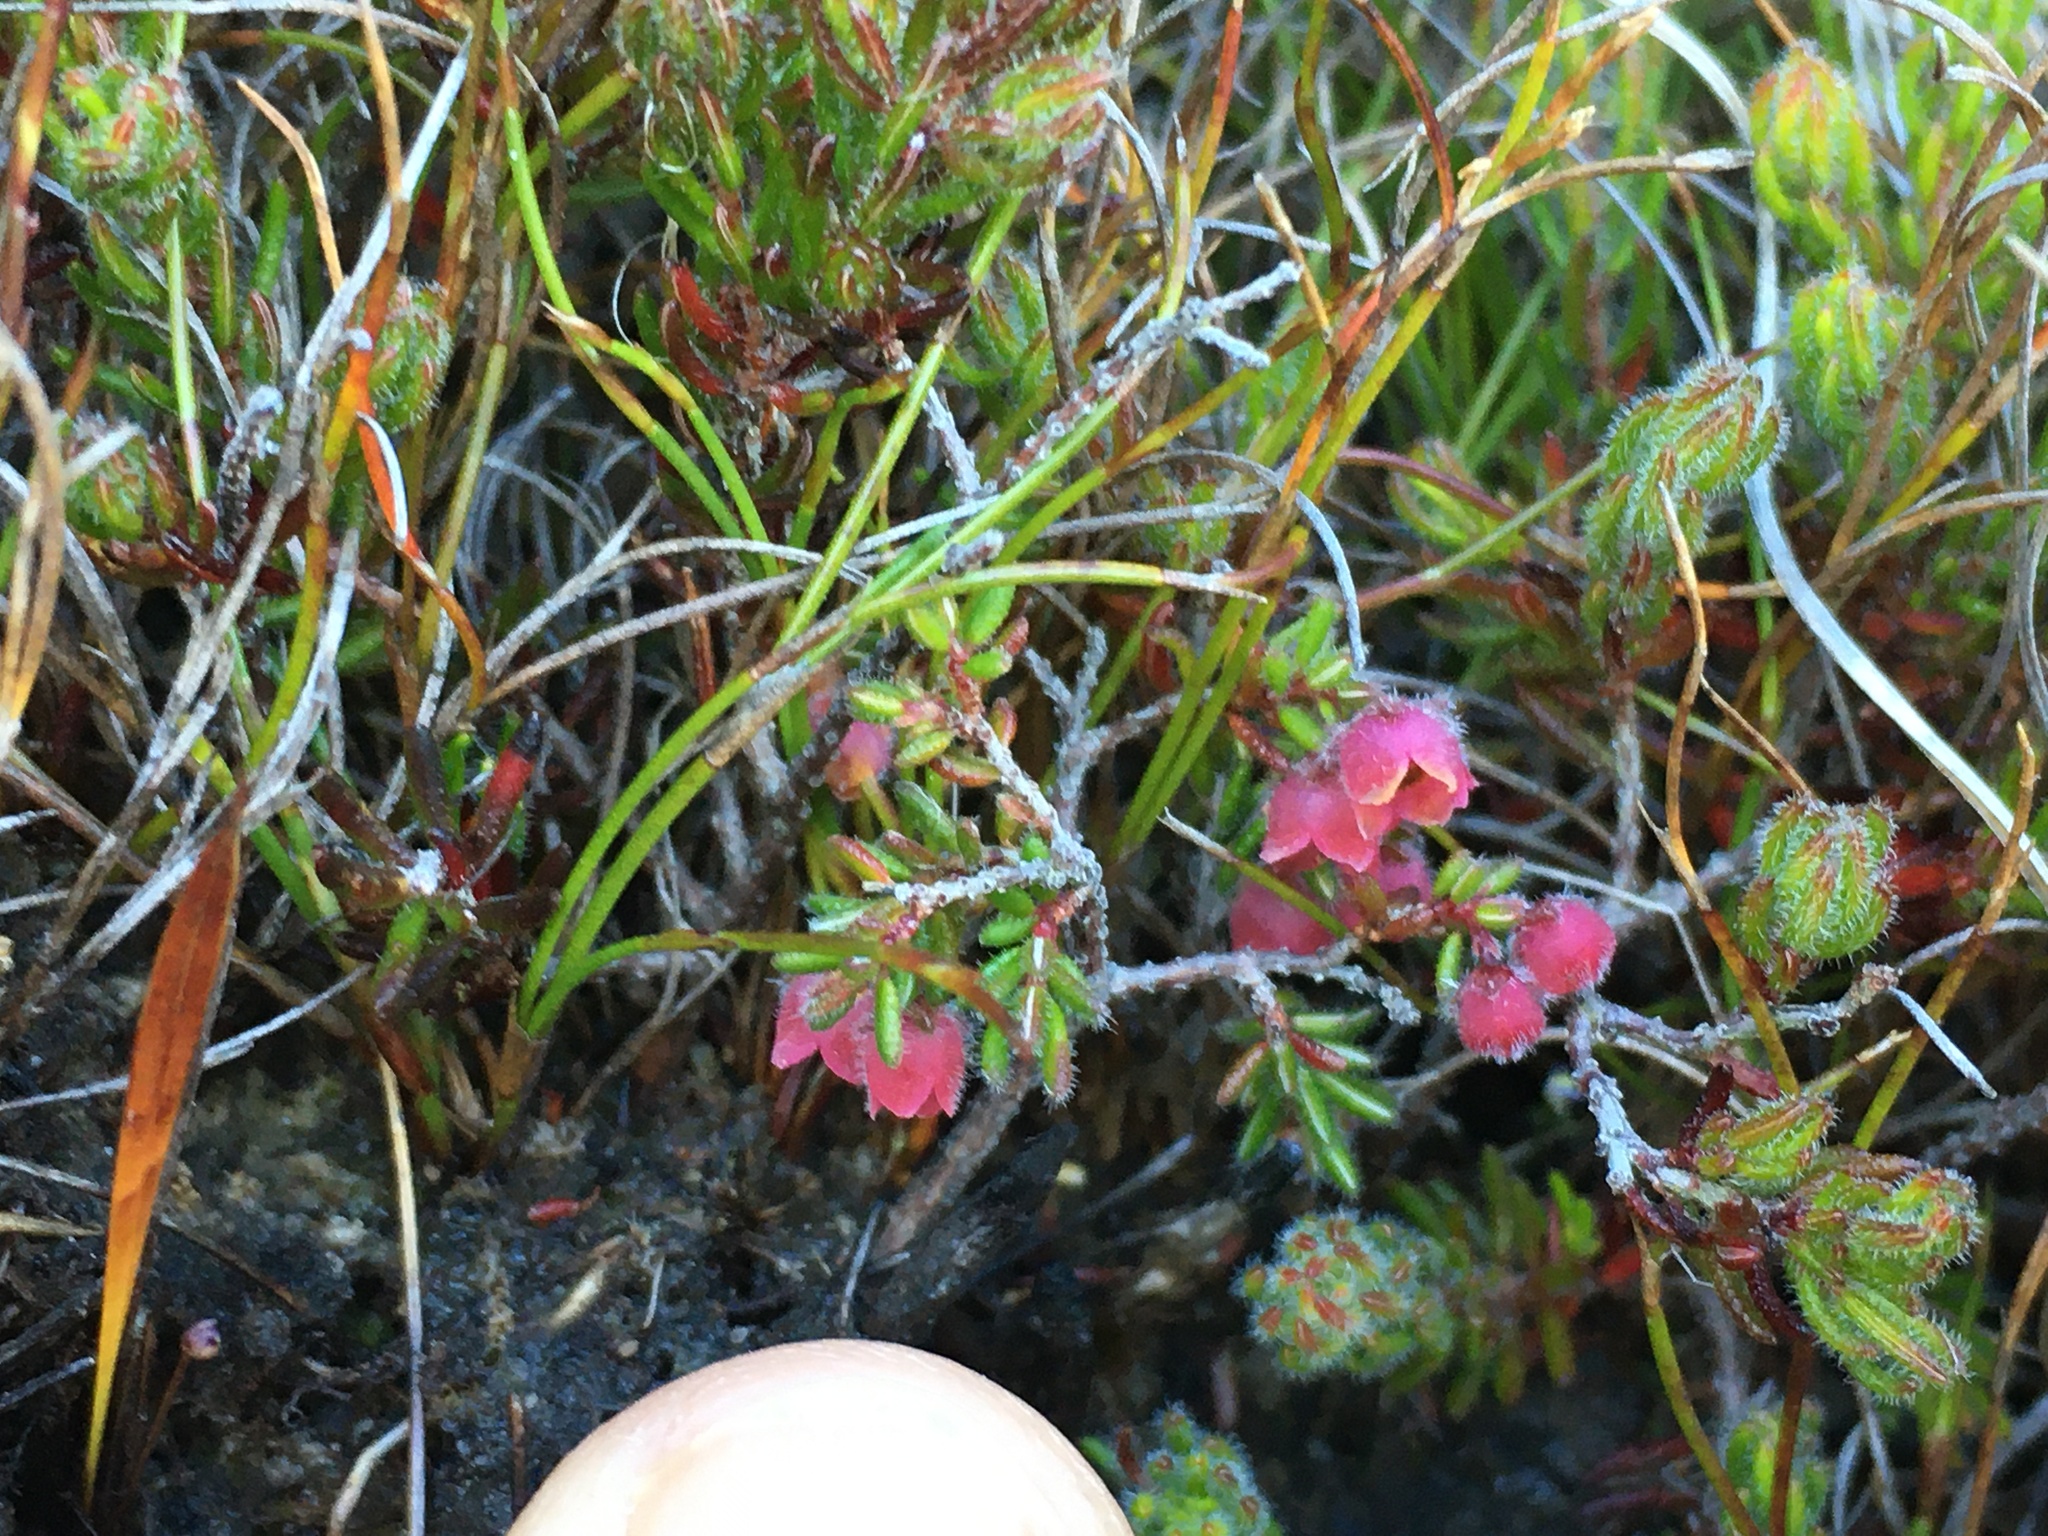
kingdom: Plantae
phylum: Tracheophyta
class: Magnoliopsida
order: Ericales
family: Ericaceae
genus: Erica
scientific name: Erica haematocodon
